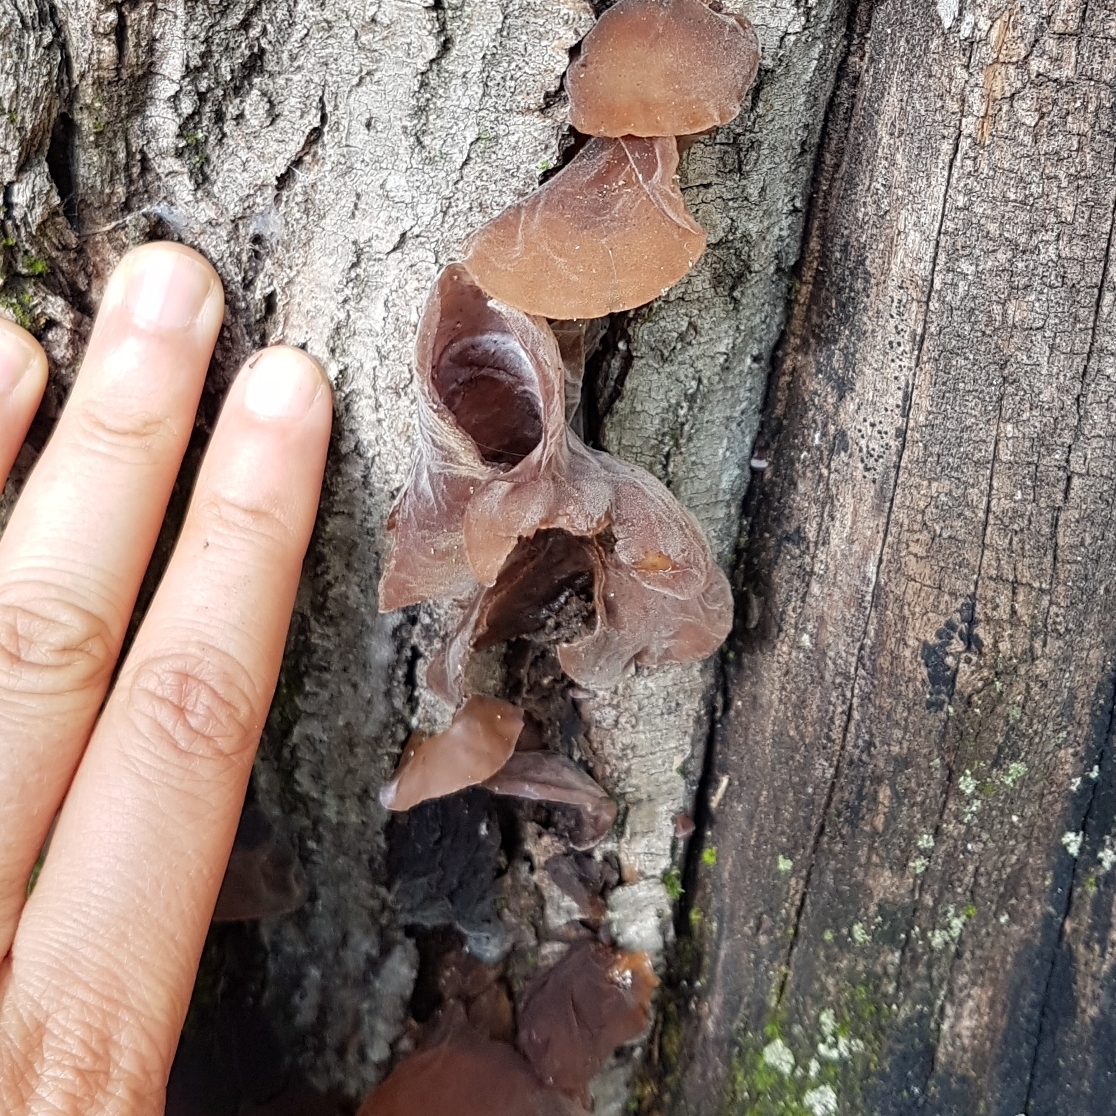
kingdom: Fungi
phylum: Basidiomycota
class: Agaricomycetes
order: Auriculariales
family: Auriculariaceae
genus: Auricularia
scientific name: Auricularia auricula-judae
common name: Jelly ear
